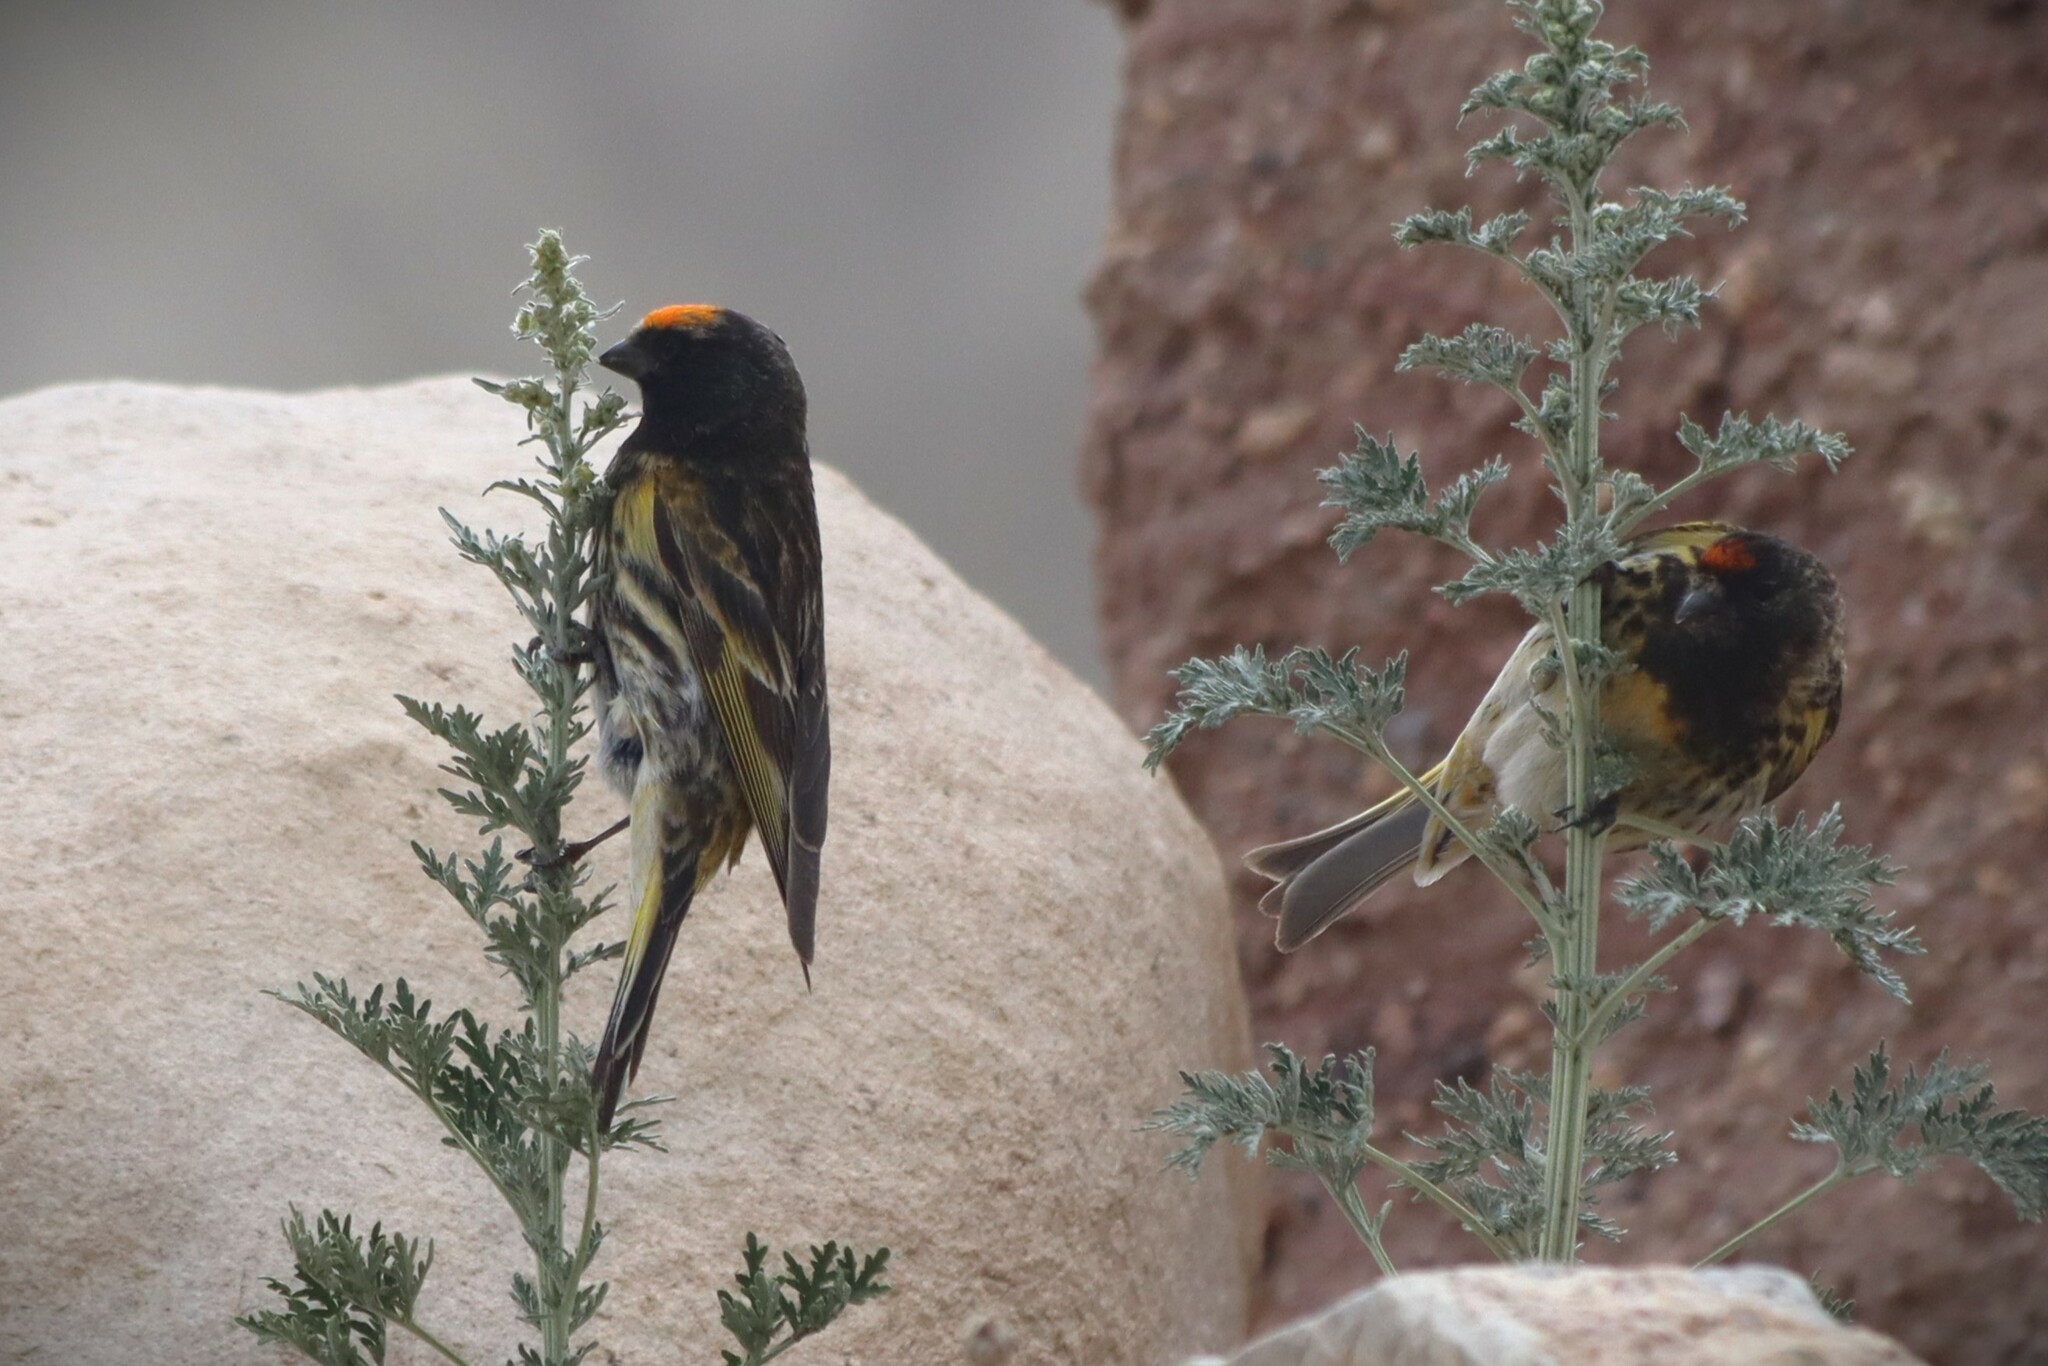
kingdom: Animalia
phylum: Chordata
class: Aves
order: Passeriformes
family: Fringillidae
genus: Serinus
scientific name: Serinus pusillus
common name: Red-fronted serin
